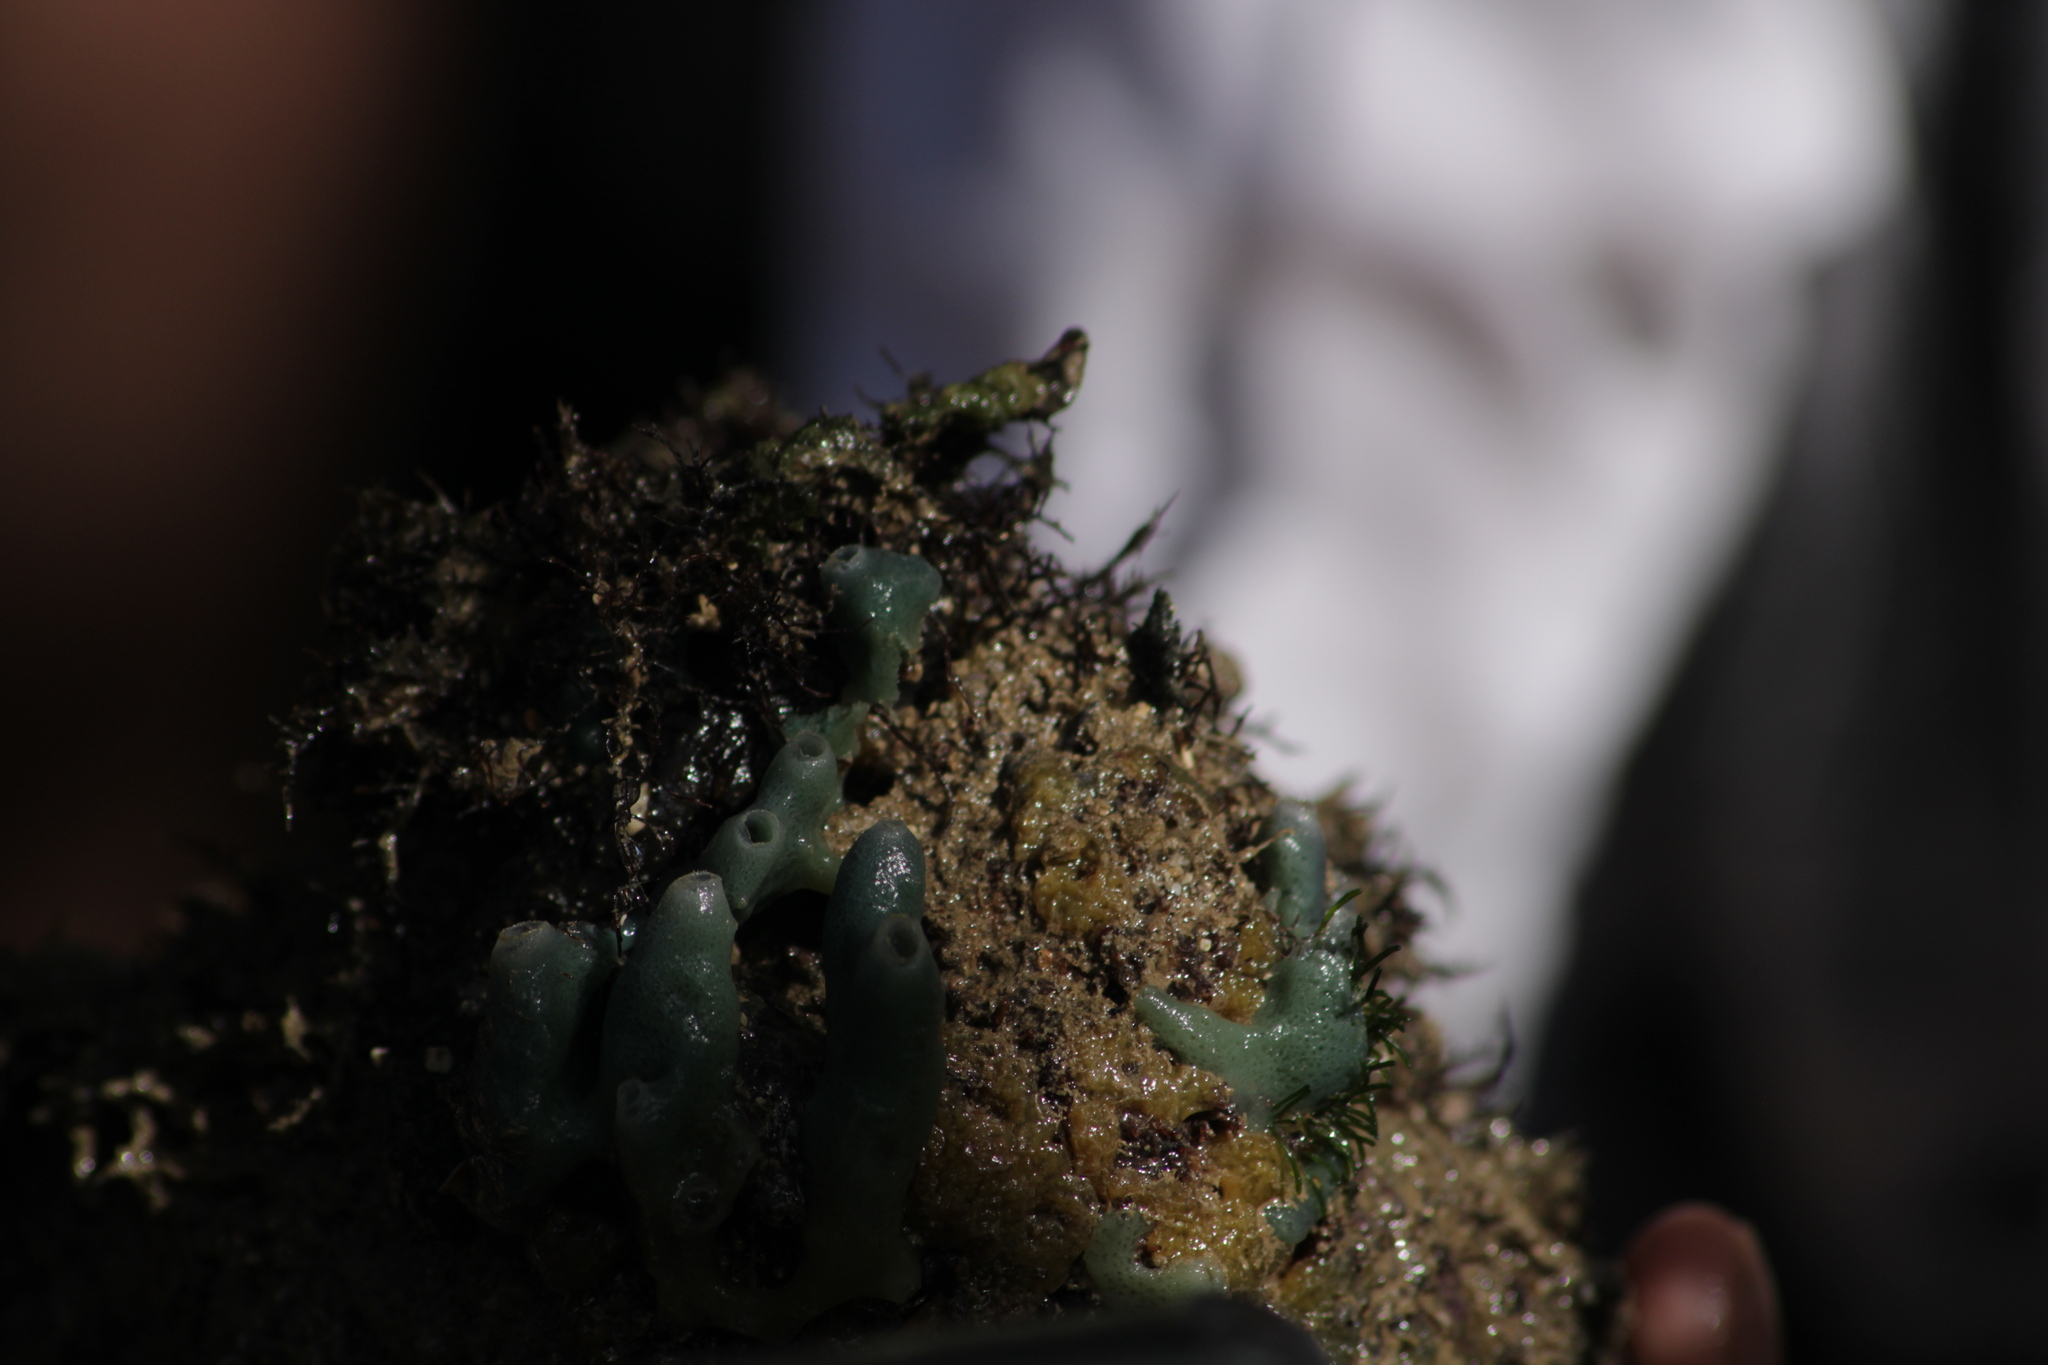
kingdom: Animalia
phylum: Porifera
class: Demospongiae
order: Haplosclerida
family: Chalinidae
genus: Haliclona
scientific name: Haliclona caerulea
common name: Blue caribbean sponge
